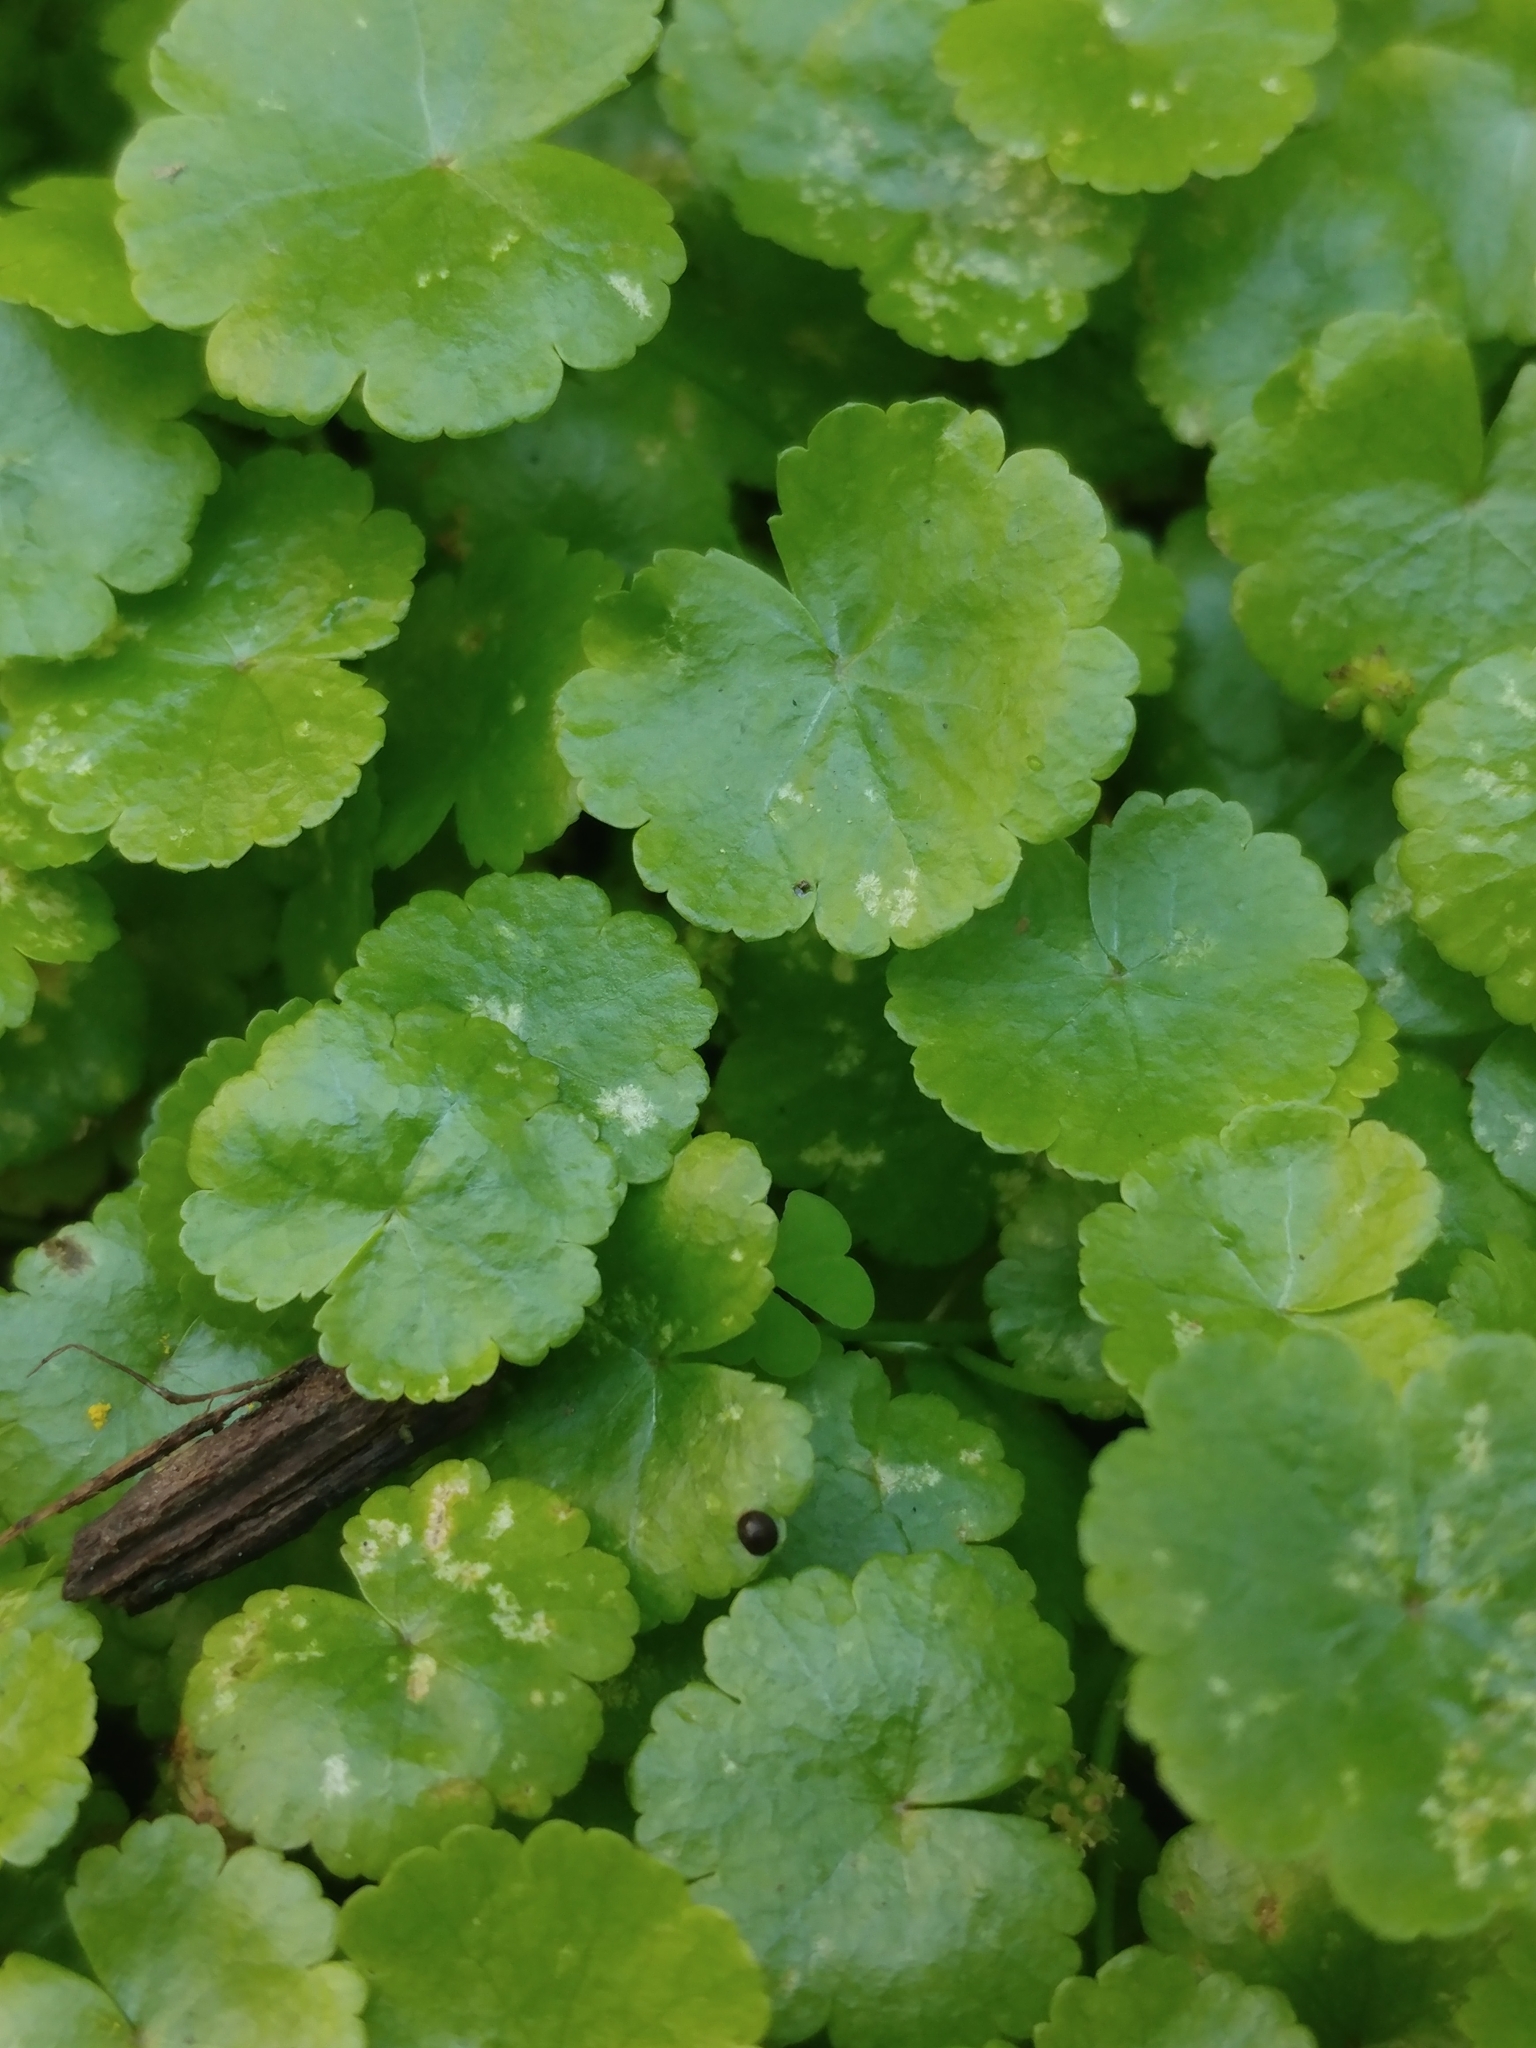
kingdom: Plantae
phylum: Tracheophyta
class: Magnoliopsida
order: Apiales
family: Araliaceae
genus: Hydrocotyle
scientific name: Hydrocotyle sibthorpioides
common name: Lawn marshpennywort
